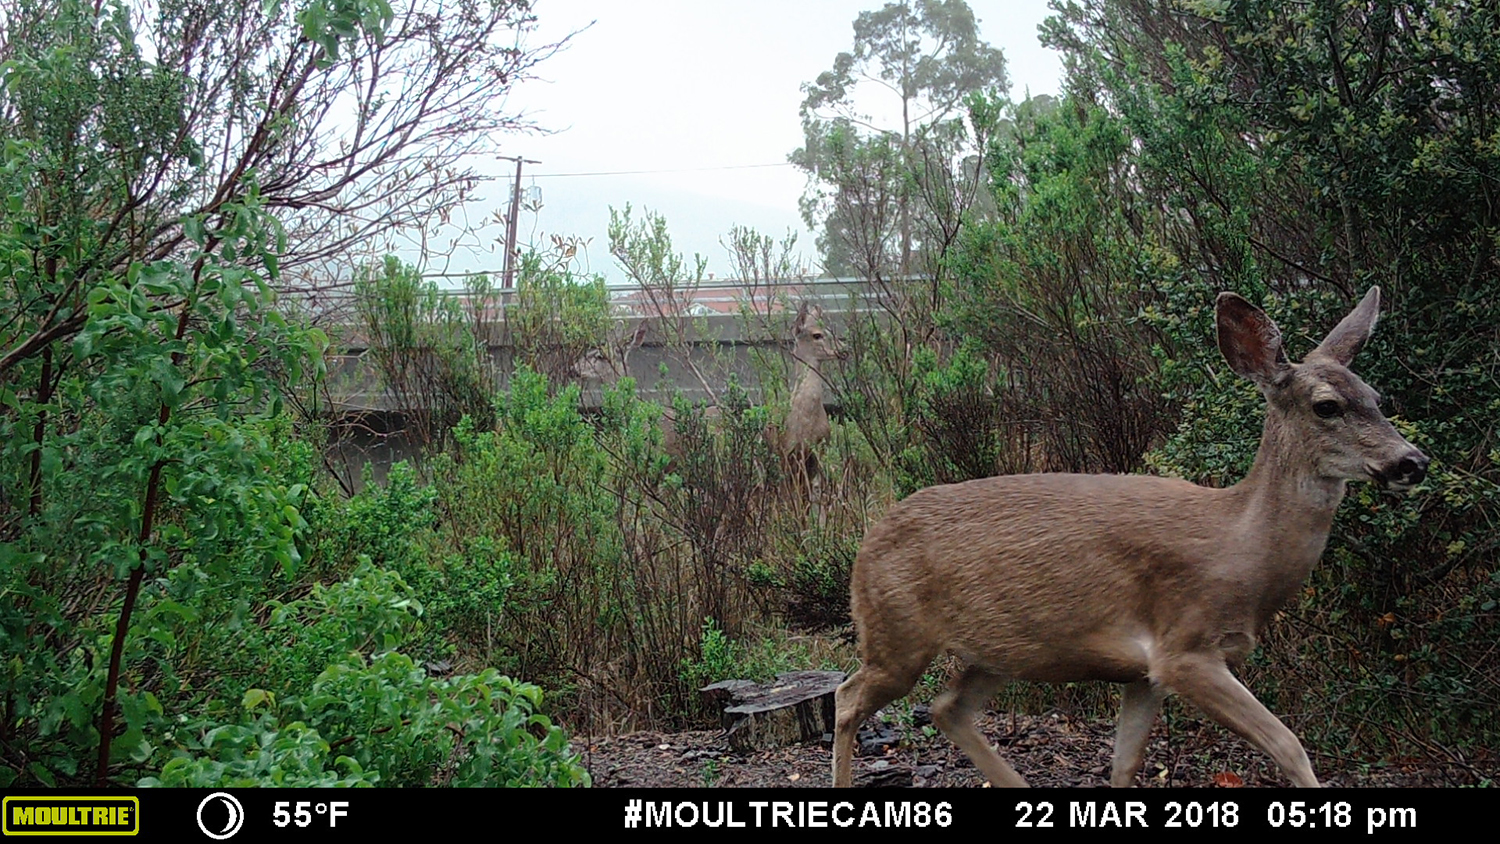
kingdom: Animalia
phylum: Chordata
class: Mammalia
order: Artiodactyla
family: Cervidae
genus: Odocoileus
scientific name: Odocoileus hemionus
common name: Mule deer
